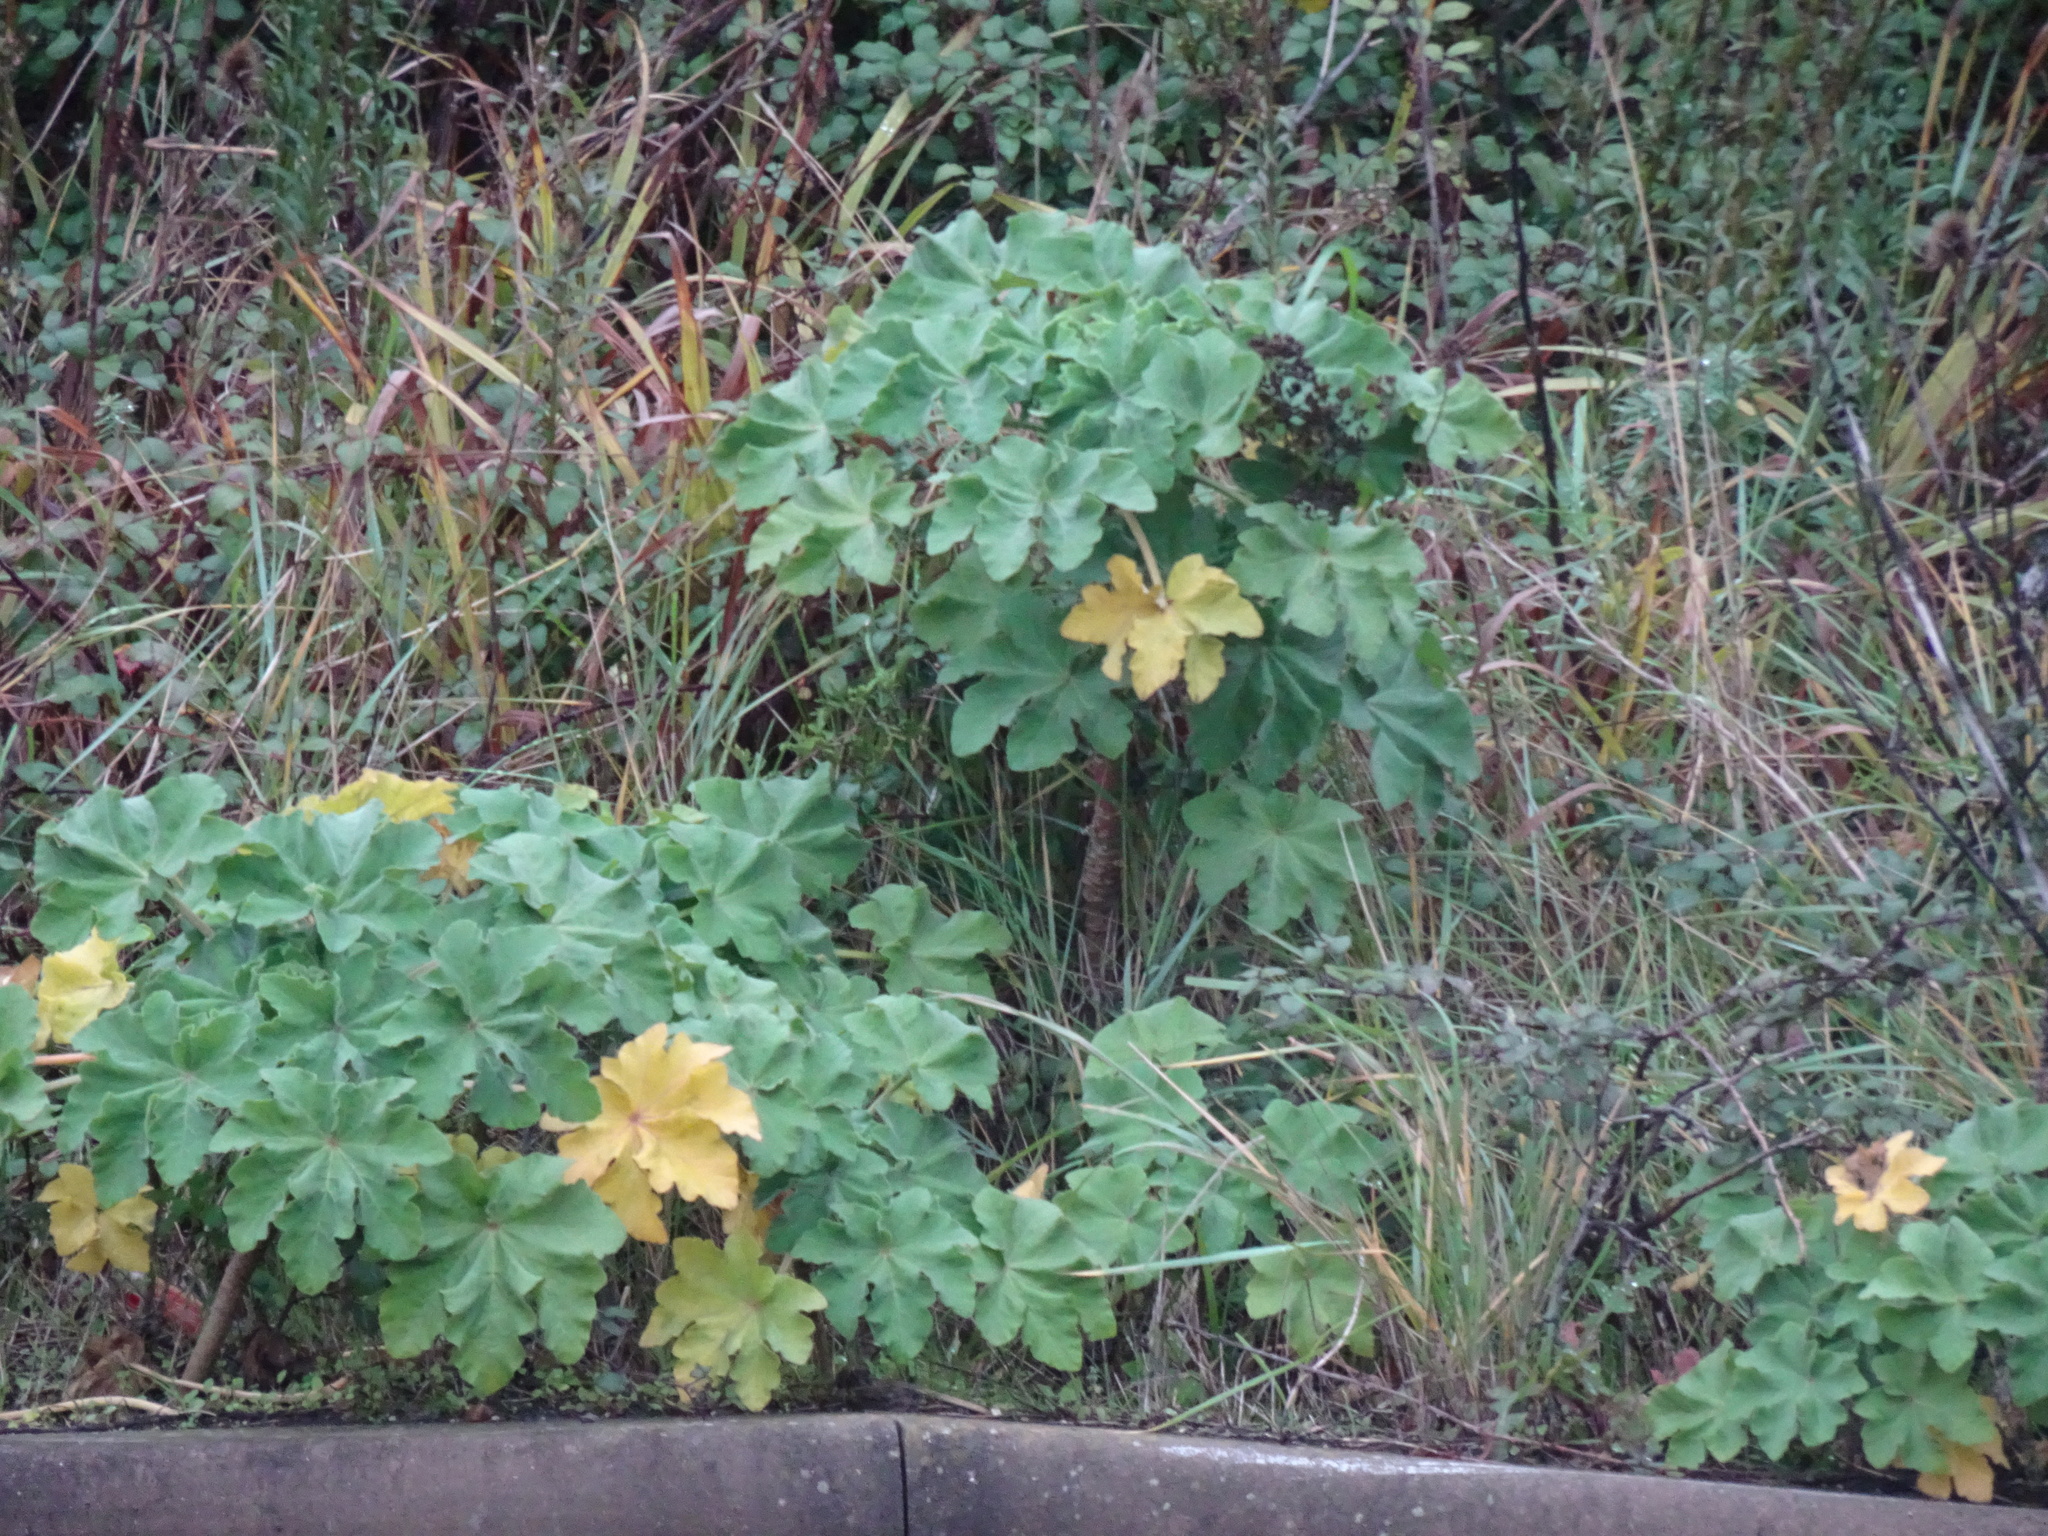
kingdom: Plantae
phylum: Tracheophyta
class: Magnoliopsida
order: Malvales
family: Malvaceae
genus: Malva
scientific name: Malva arborea
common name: Tree mallow
